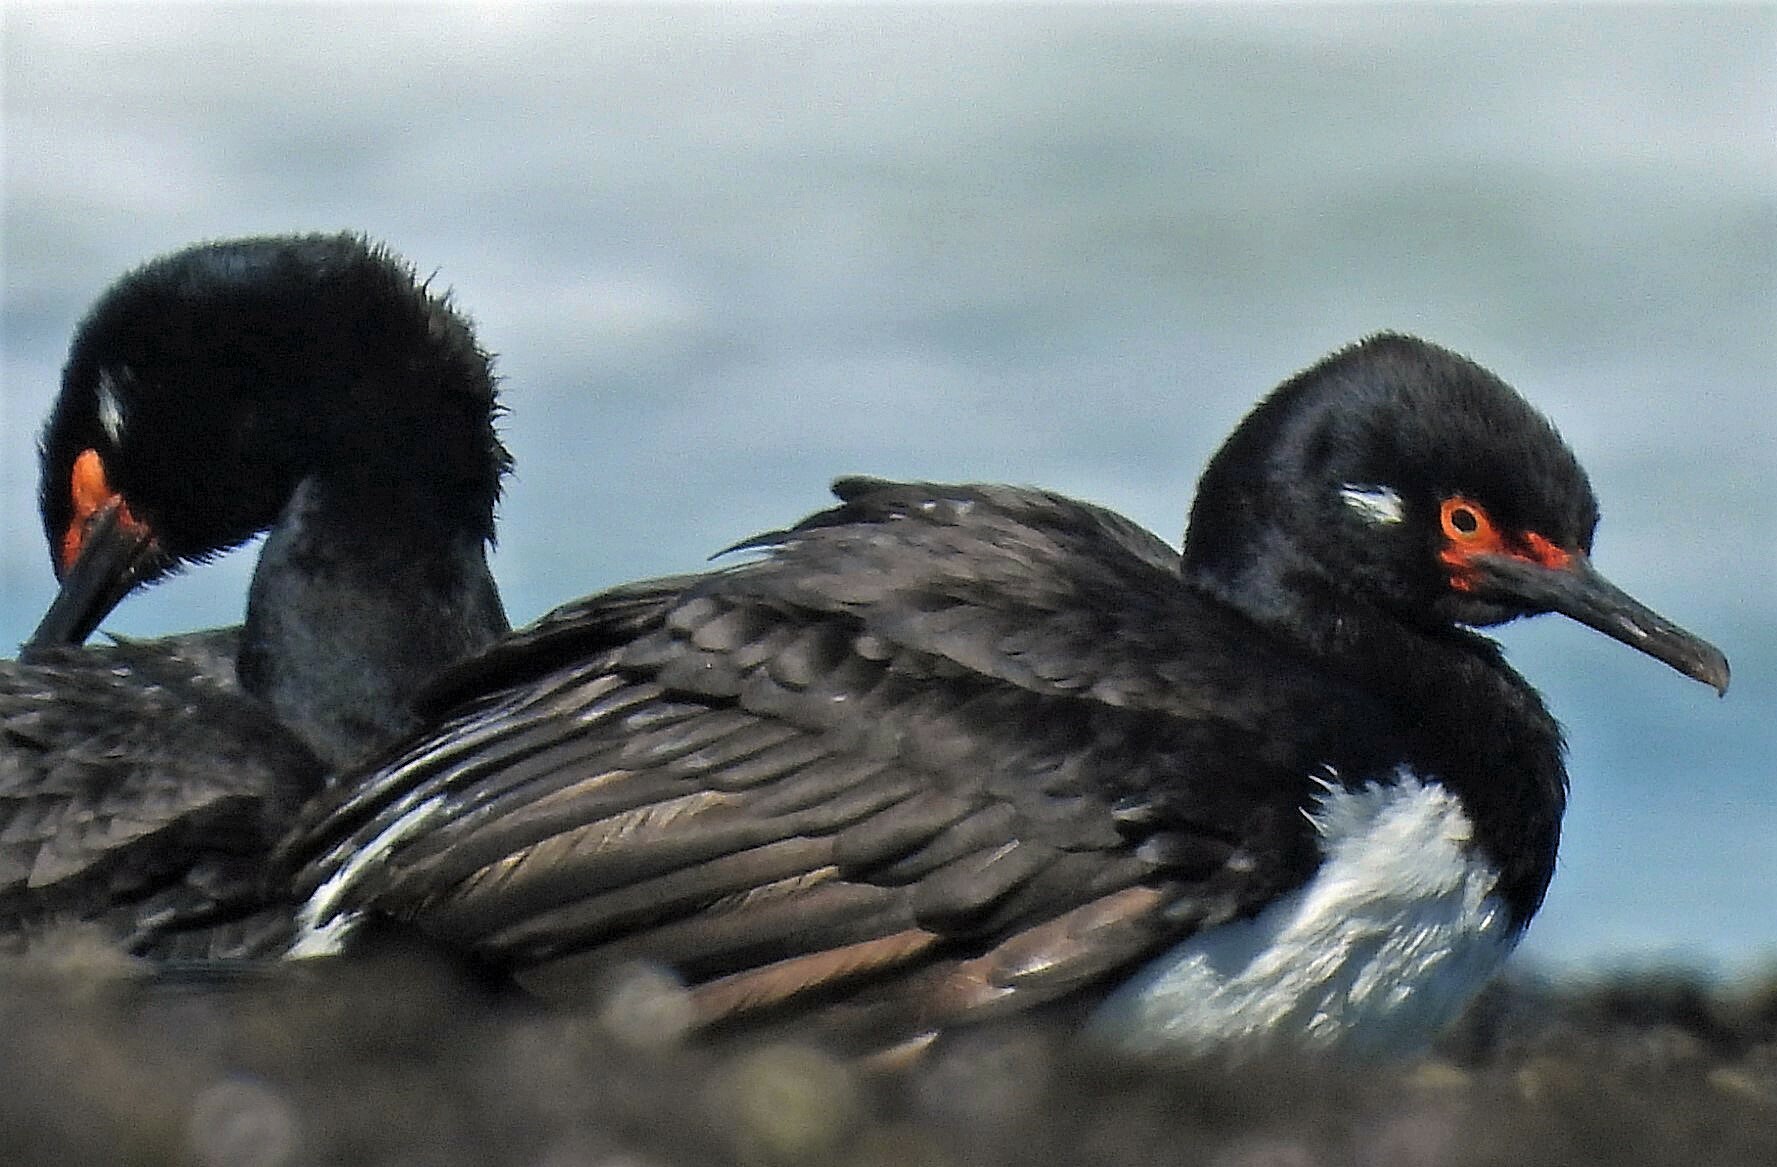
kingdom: Animalia
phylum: Chordata
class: Aves
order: Suliformes
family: Phalacrocoracidae
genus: Phalacrocorax
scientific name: Phalacrocorax magellanicus
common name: Rock shag
